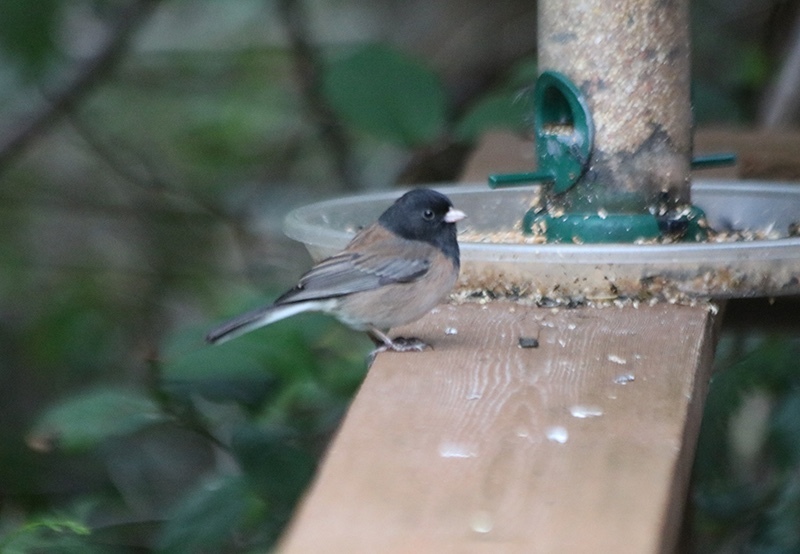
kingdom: Animalia
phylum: Chordata
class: Aves
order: Passeriformes
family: Passerellidae
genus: Junco
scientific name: Junco hyemalis
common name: Dark-eyed junco
